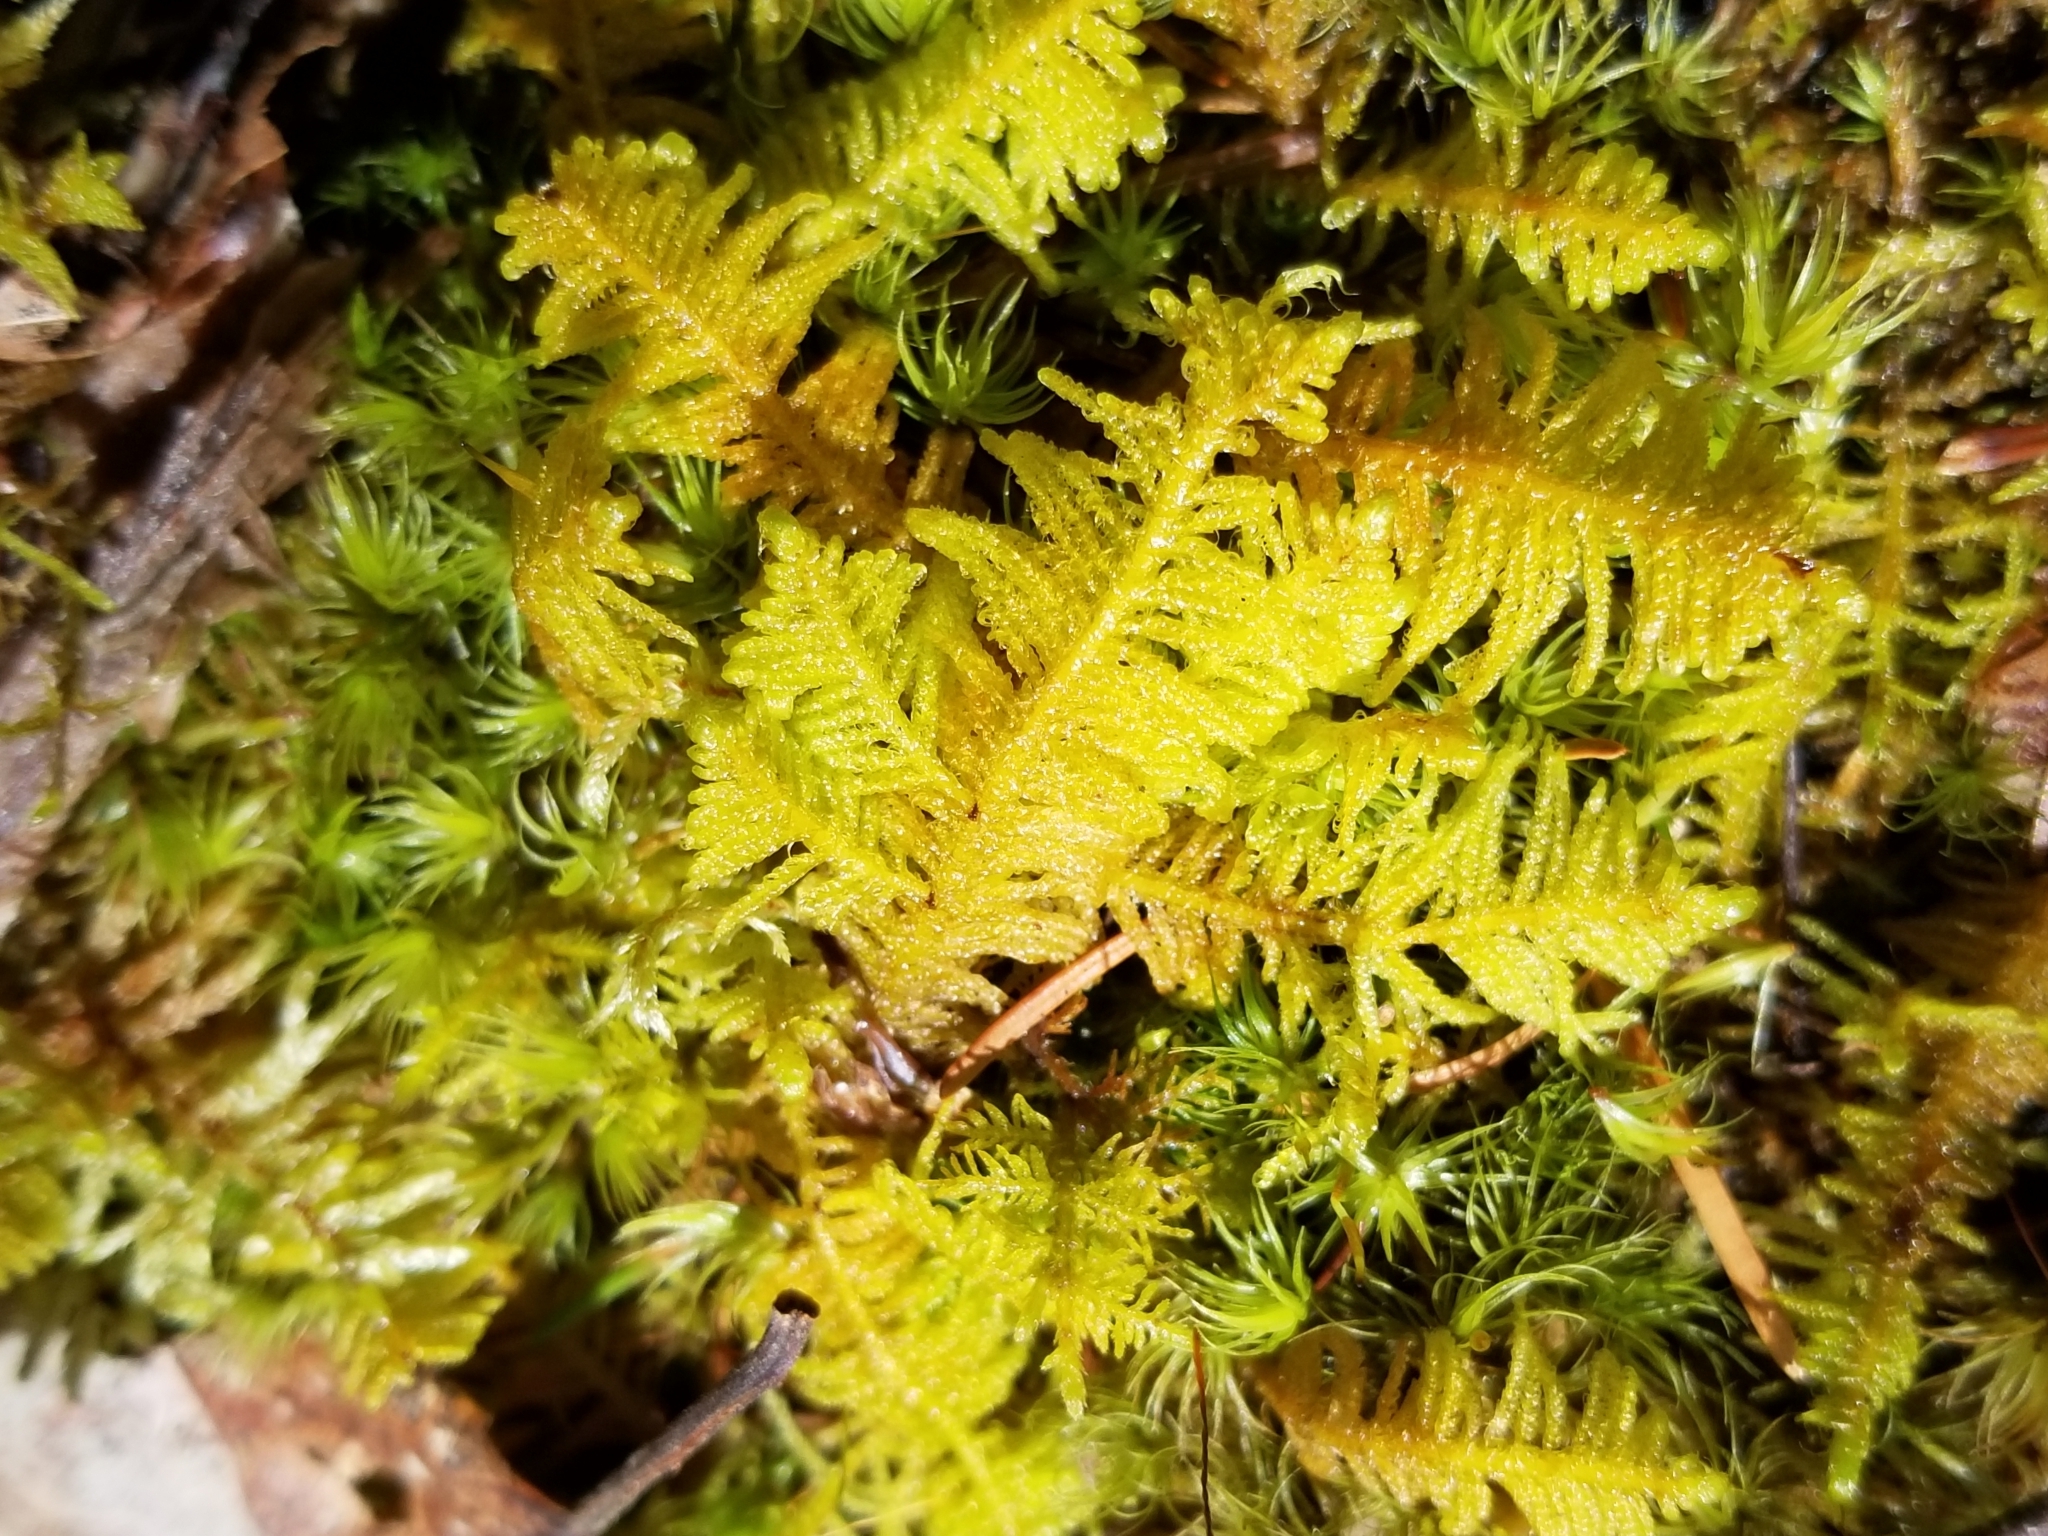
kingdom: Plantae
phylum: Bryophyta
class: Bryopsida
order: Hypnales
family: Pylaisiaceae
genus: Ptilium
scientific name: Ptilium crista-castrensis
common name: Knight's plume moss
